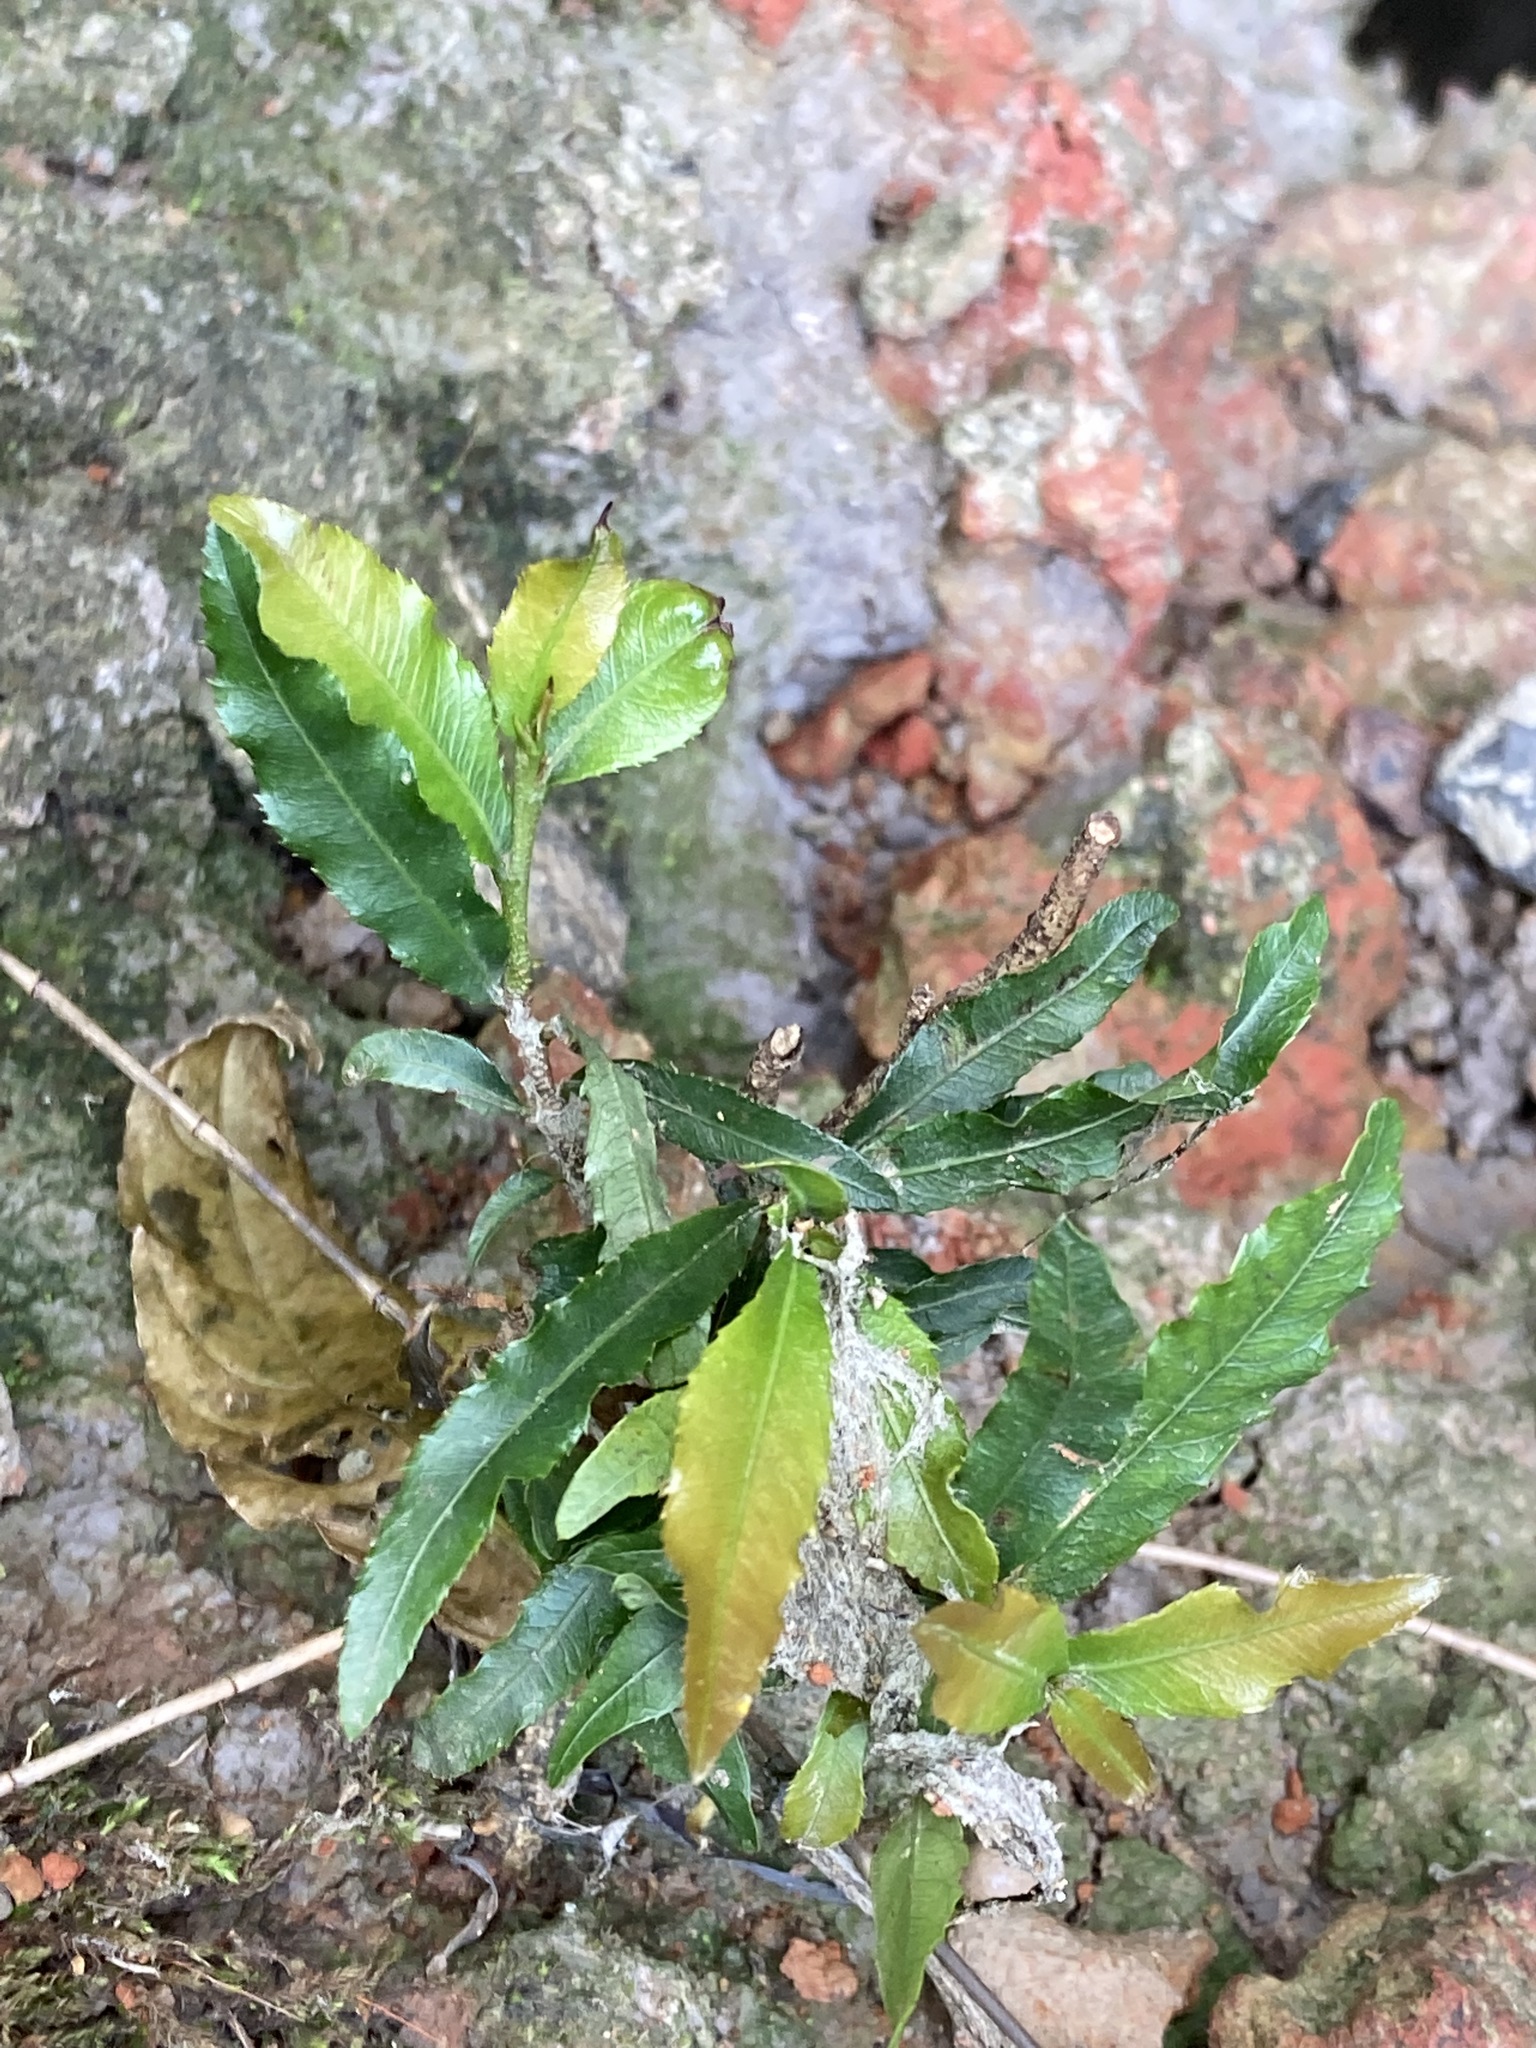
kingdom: Plantae
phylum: Tracheophyta
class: Magnoliopsida
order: Malpighiales
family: Ochnaceae
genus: Ochna
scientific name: Ochna serrulata
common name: Mickey mouse plant
